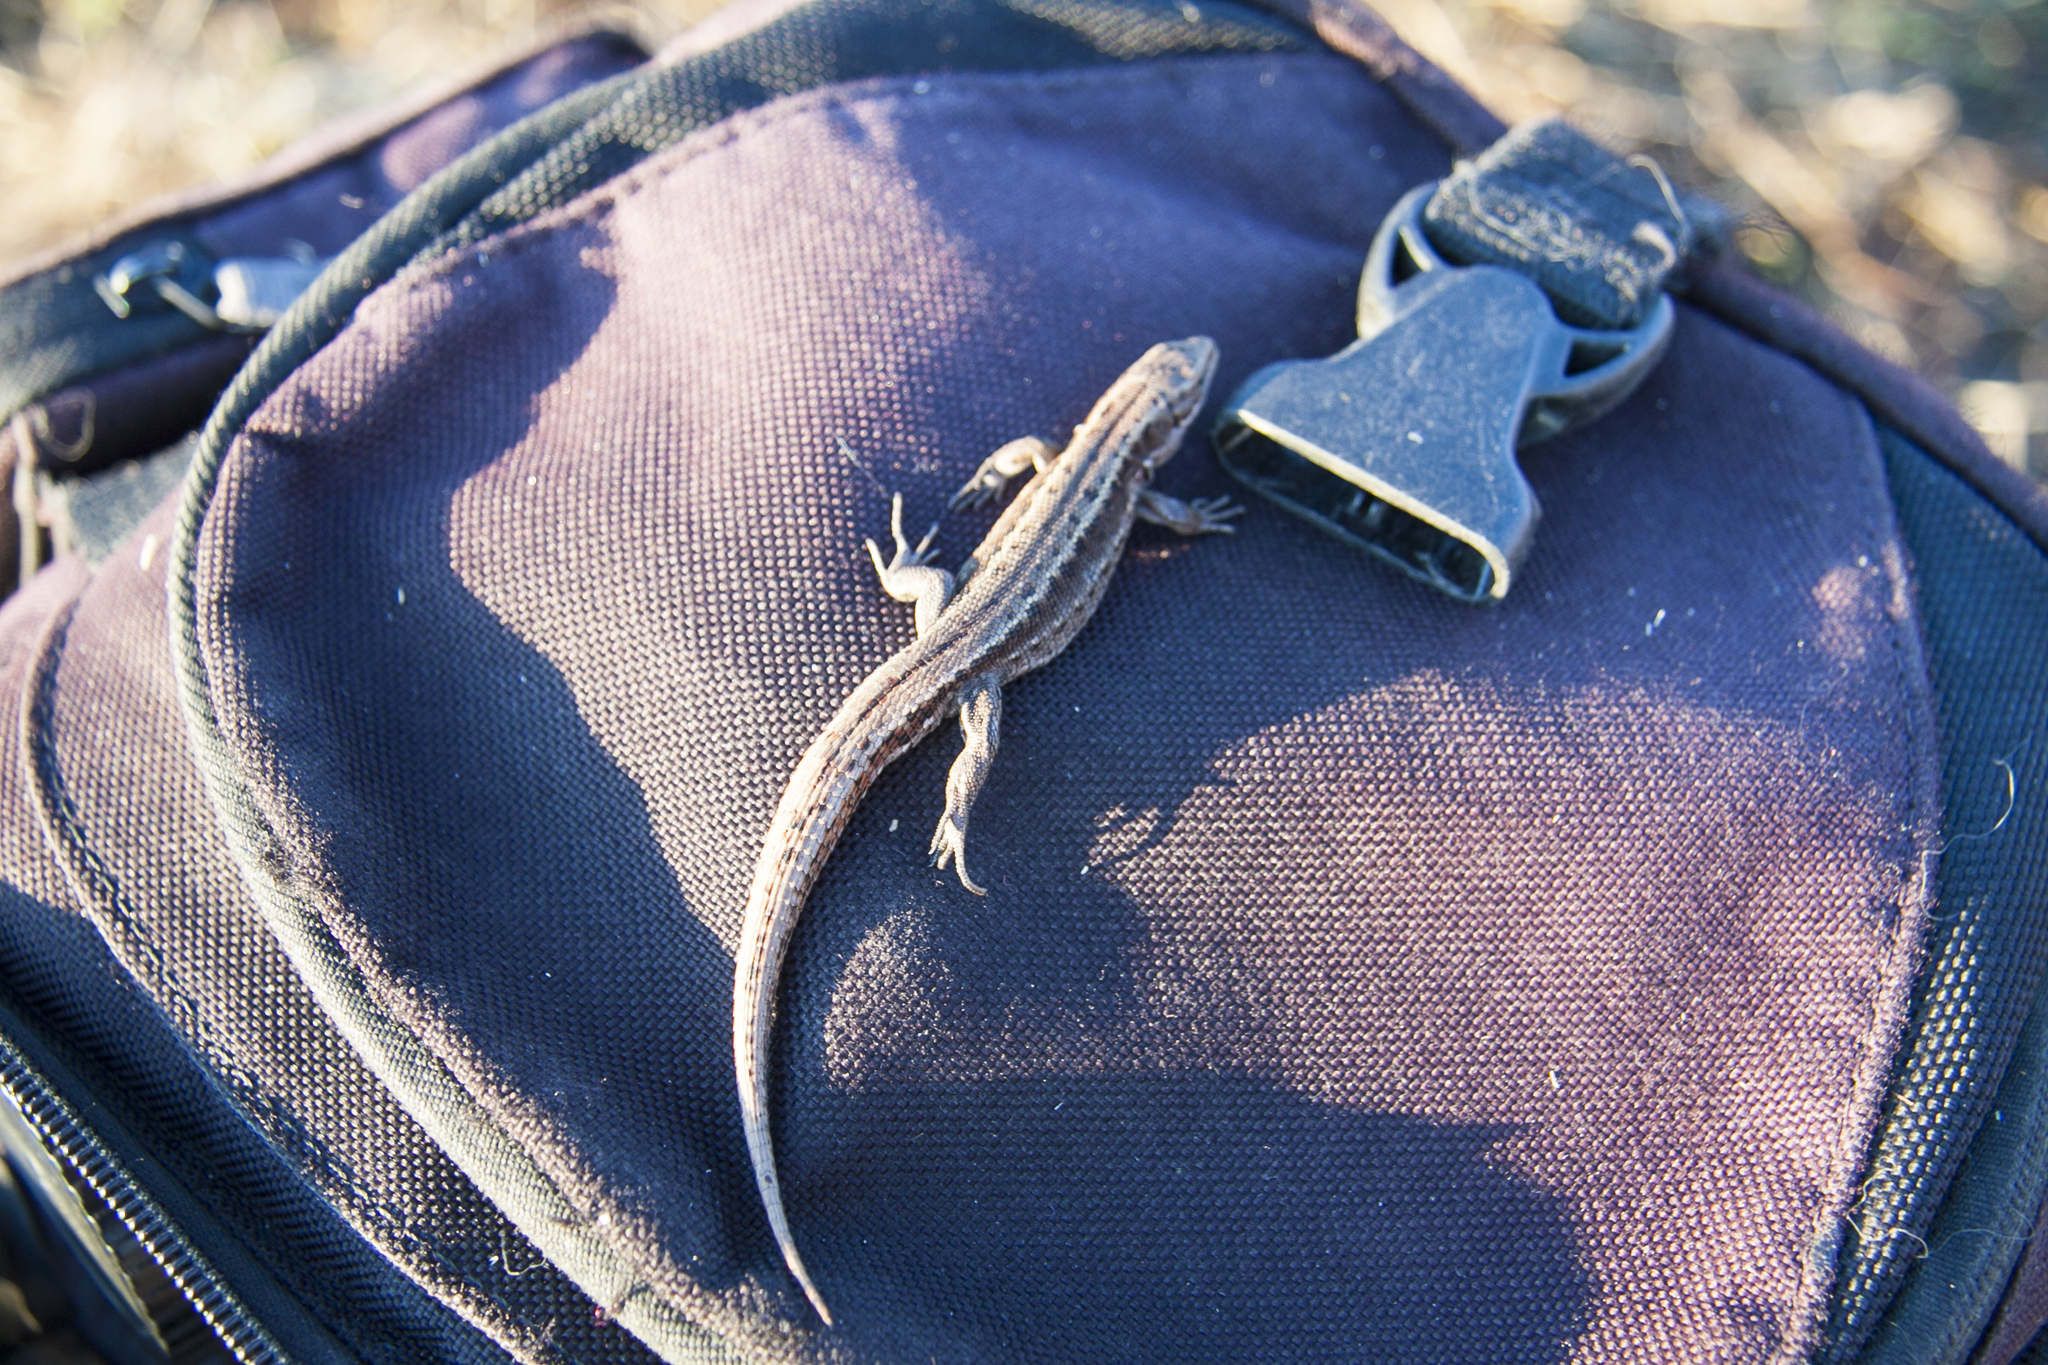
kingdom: Animalia
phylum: Chordata
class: Squamata
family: Lacertidae
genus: Zootoca
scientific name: Zootoca vivipara
